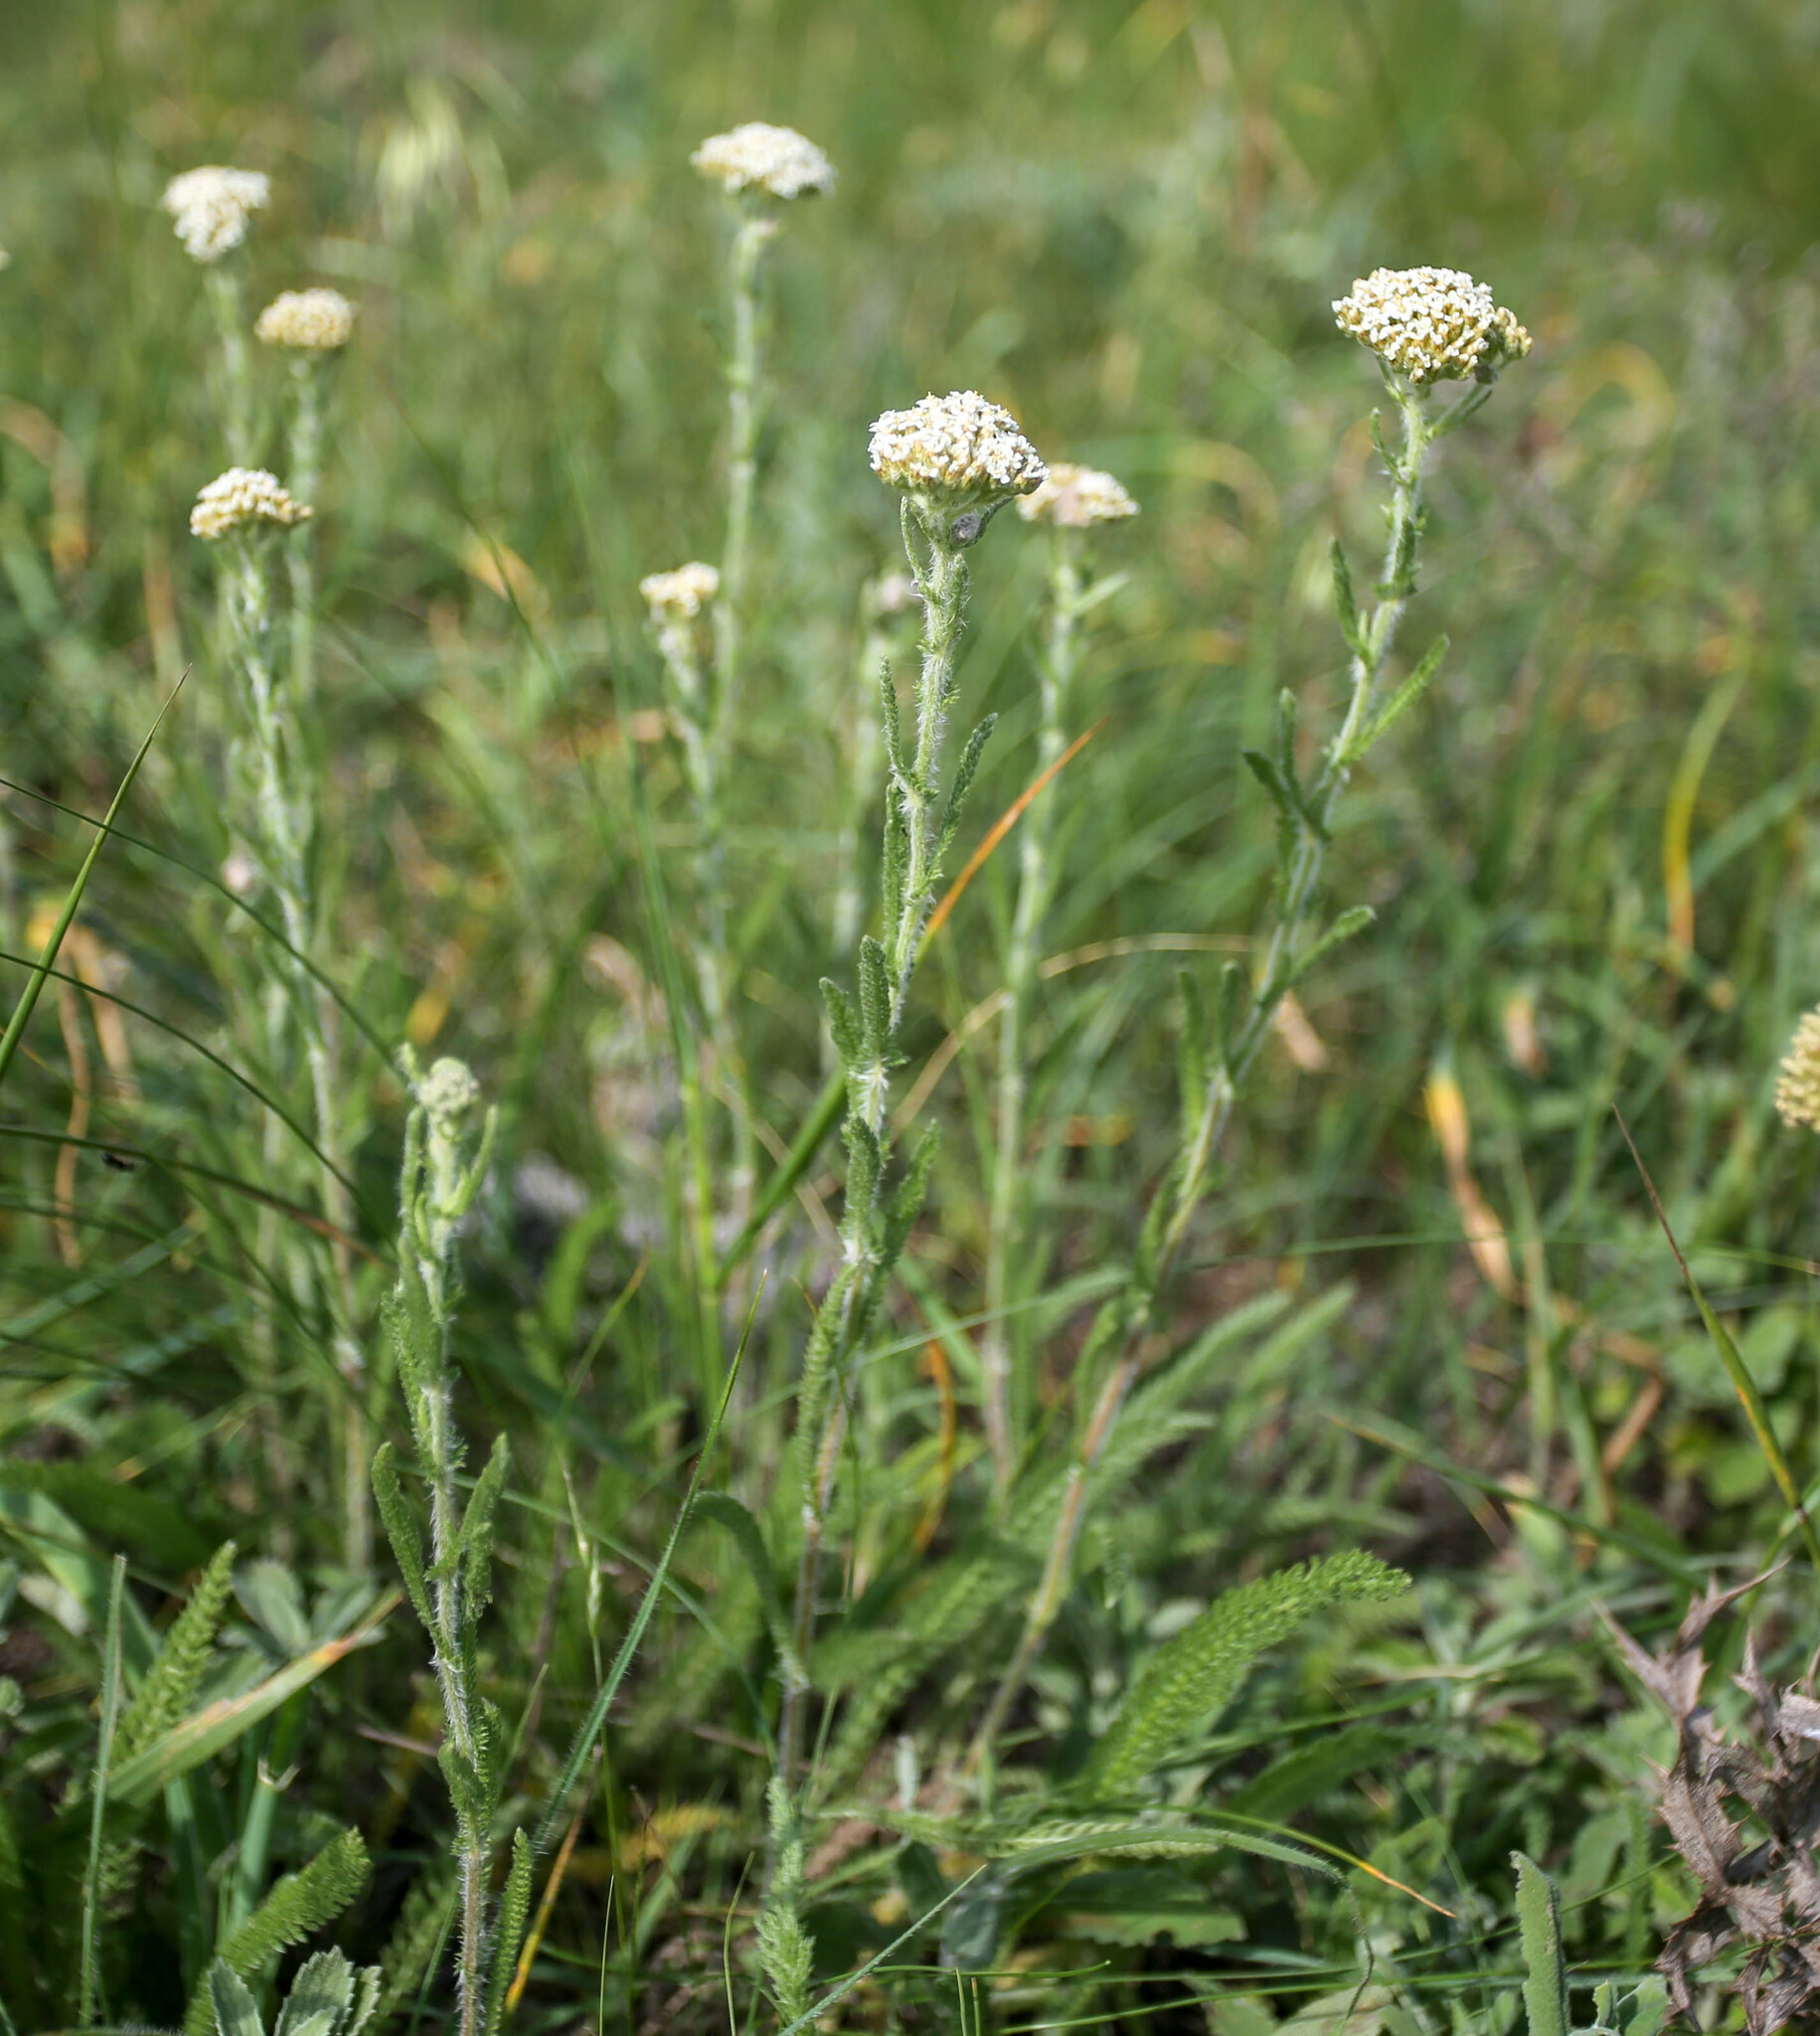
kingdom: Plantae
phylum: Tracheophyta
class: Magnoliopsida
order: Asterales
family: Asteraceae
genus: Achillea
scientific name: Achillea setacea
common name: Bristly yarrow
